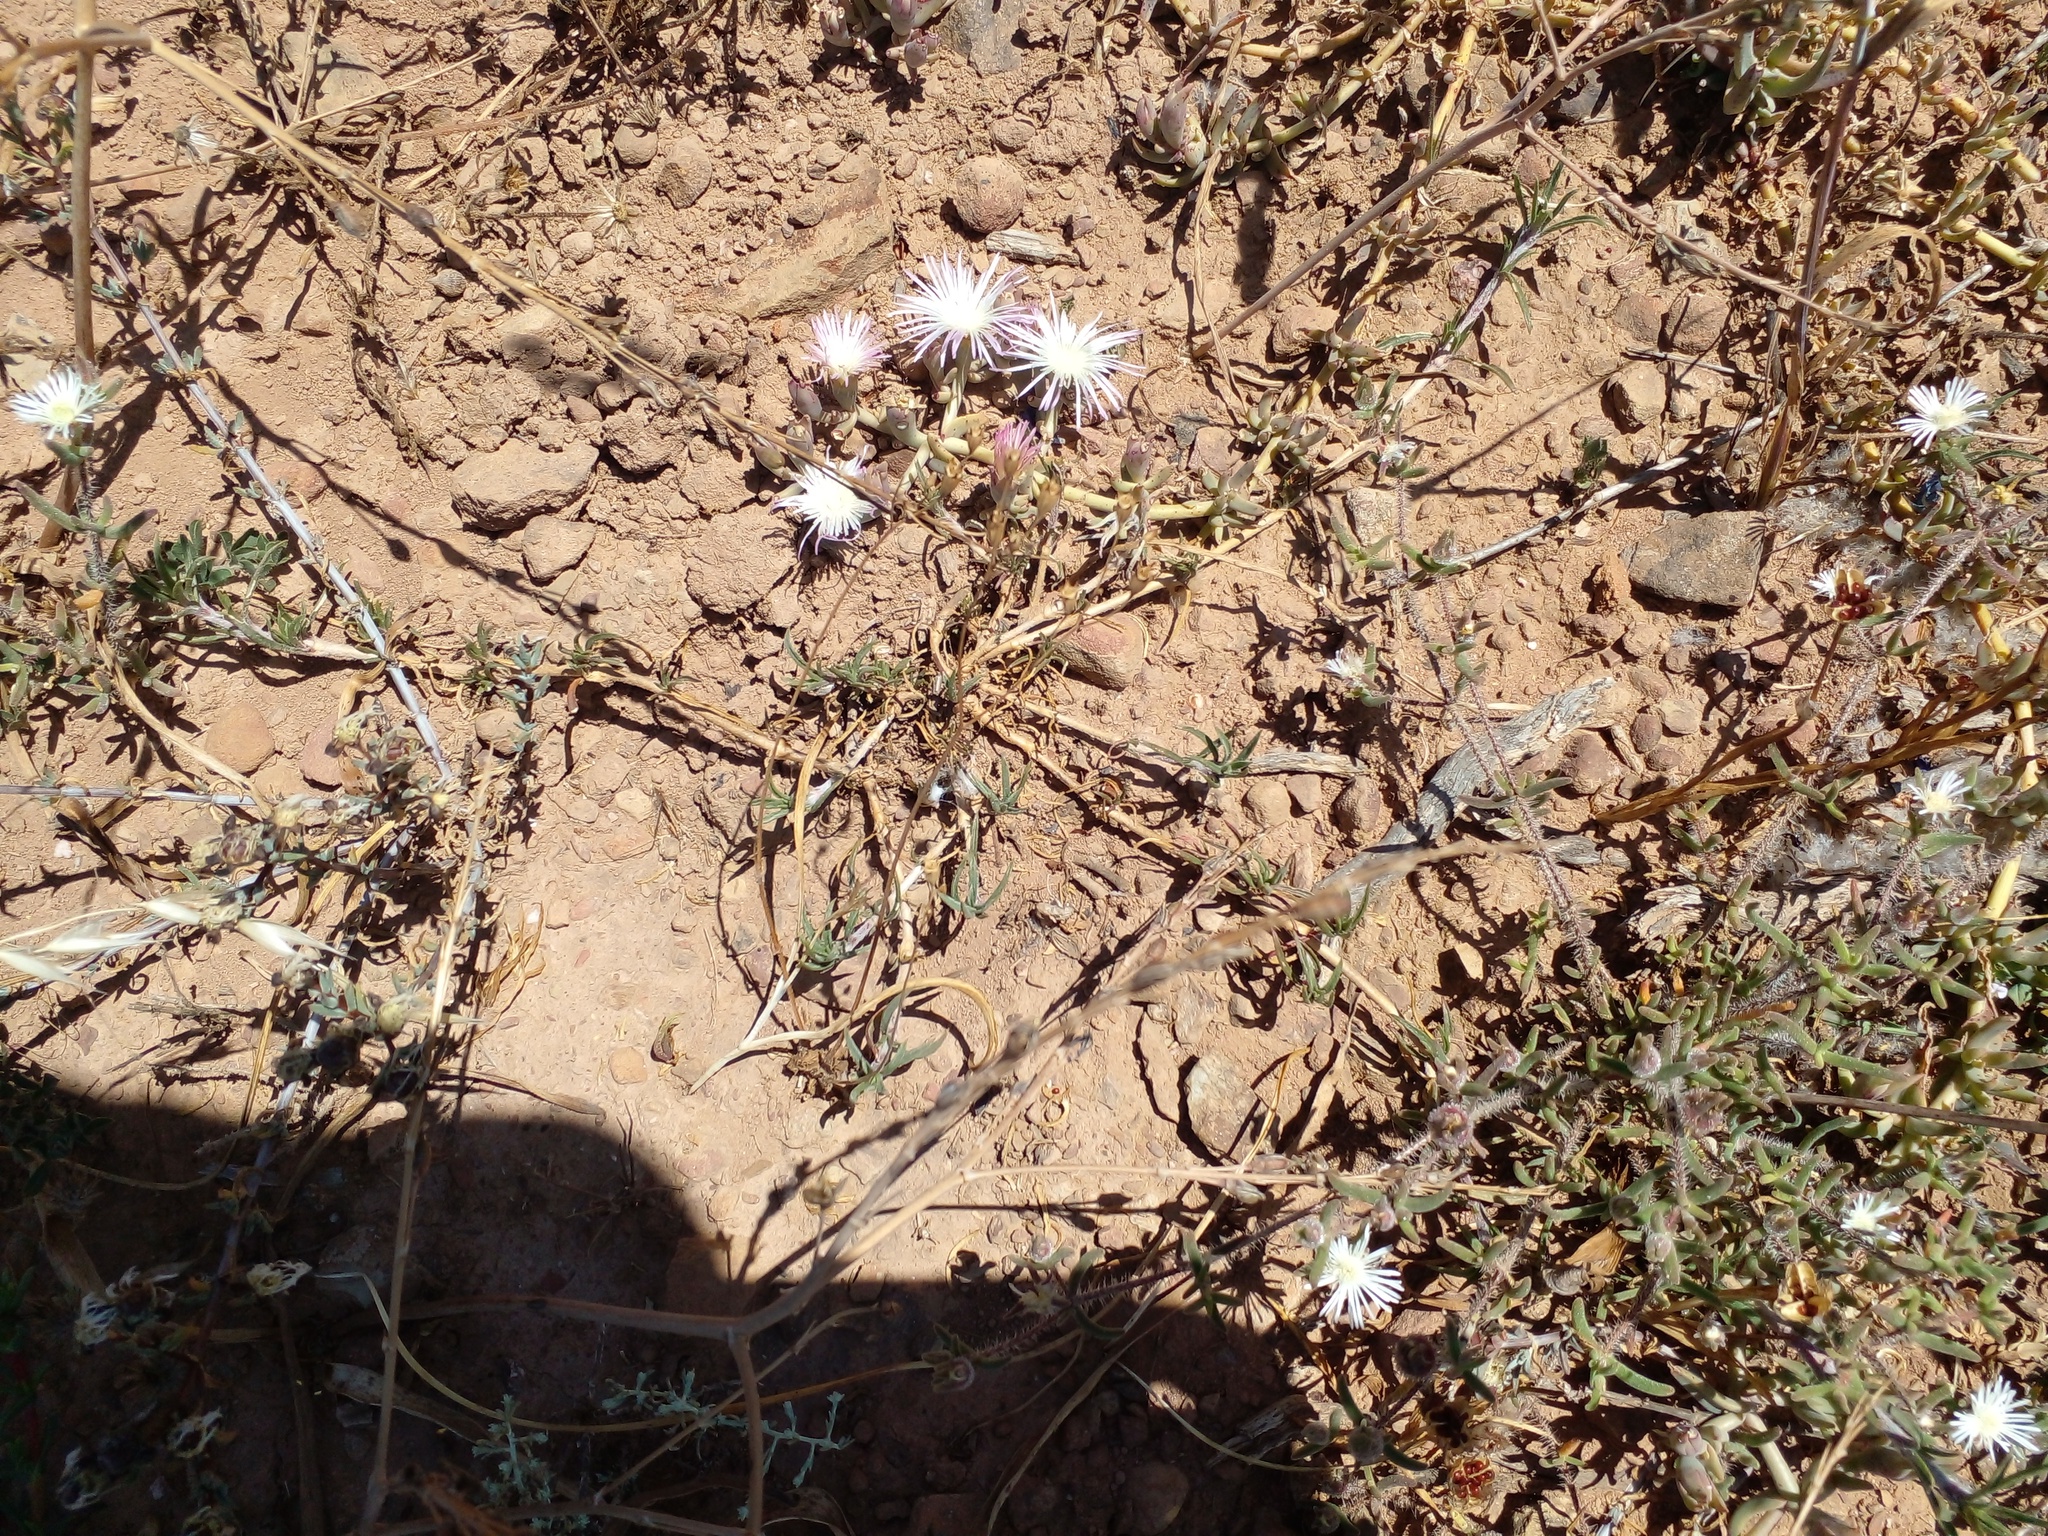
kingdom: Plantae
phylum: Tracheophyta
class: Magnoliopsida
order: Caryophyllales
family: Aizoaceae
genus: Mesembryanthemum
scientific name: Mesembryanthemum pallens
